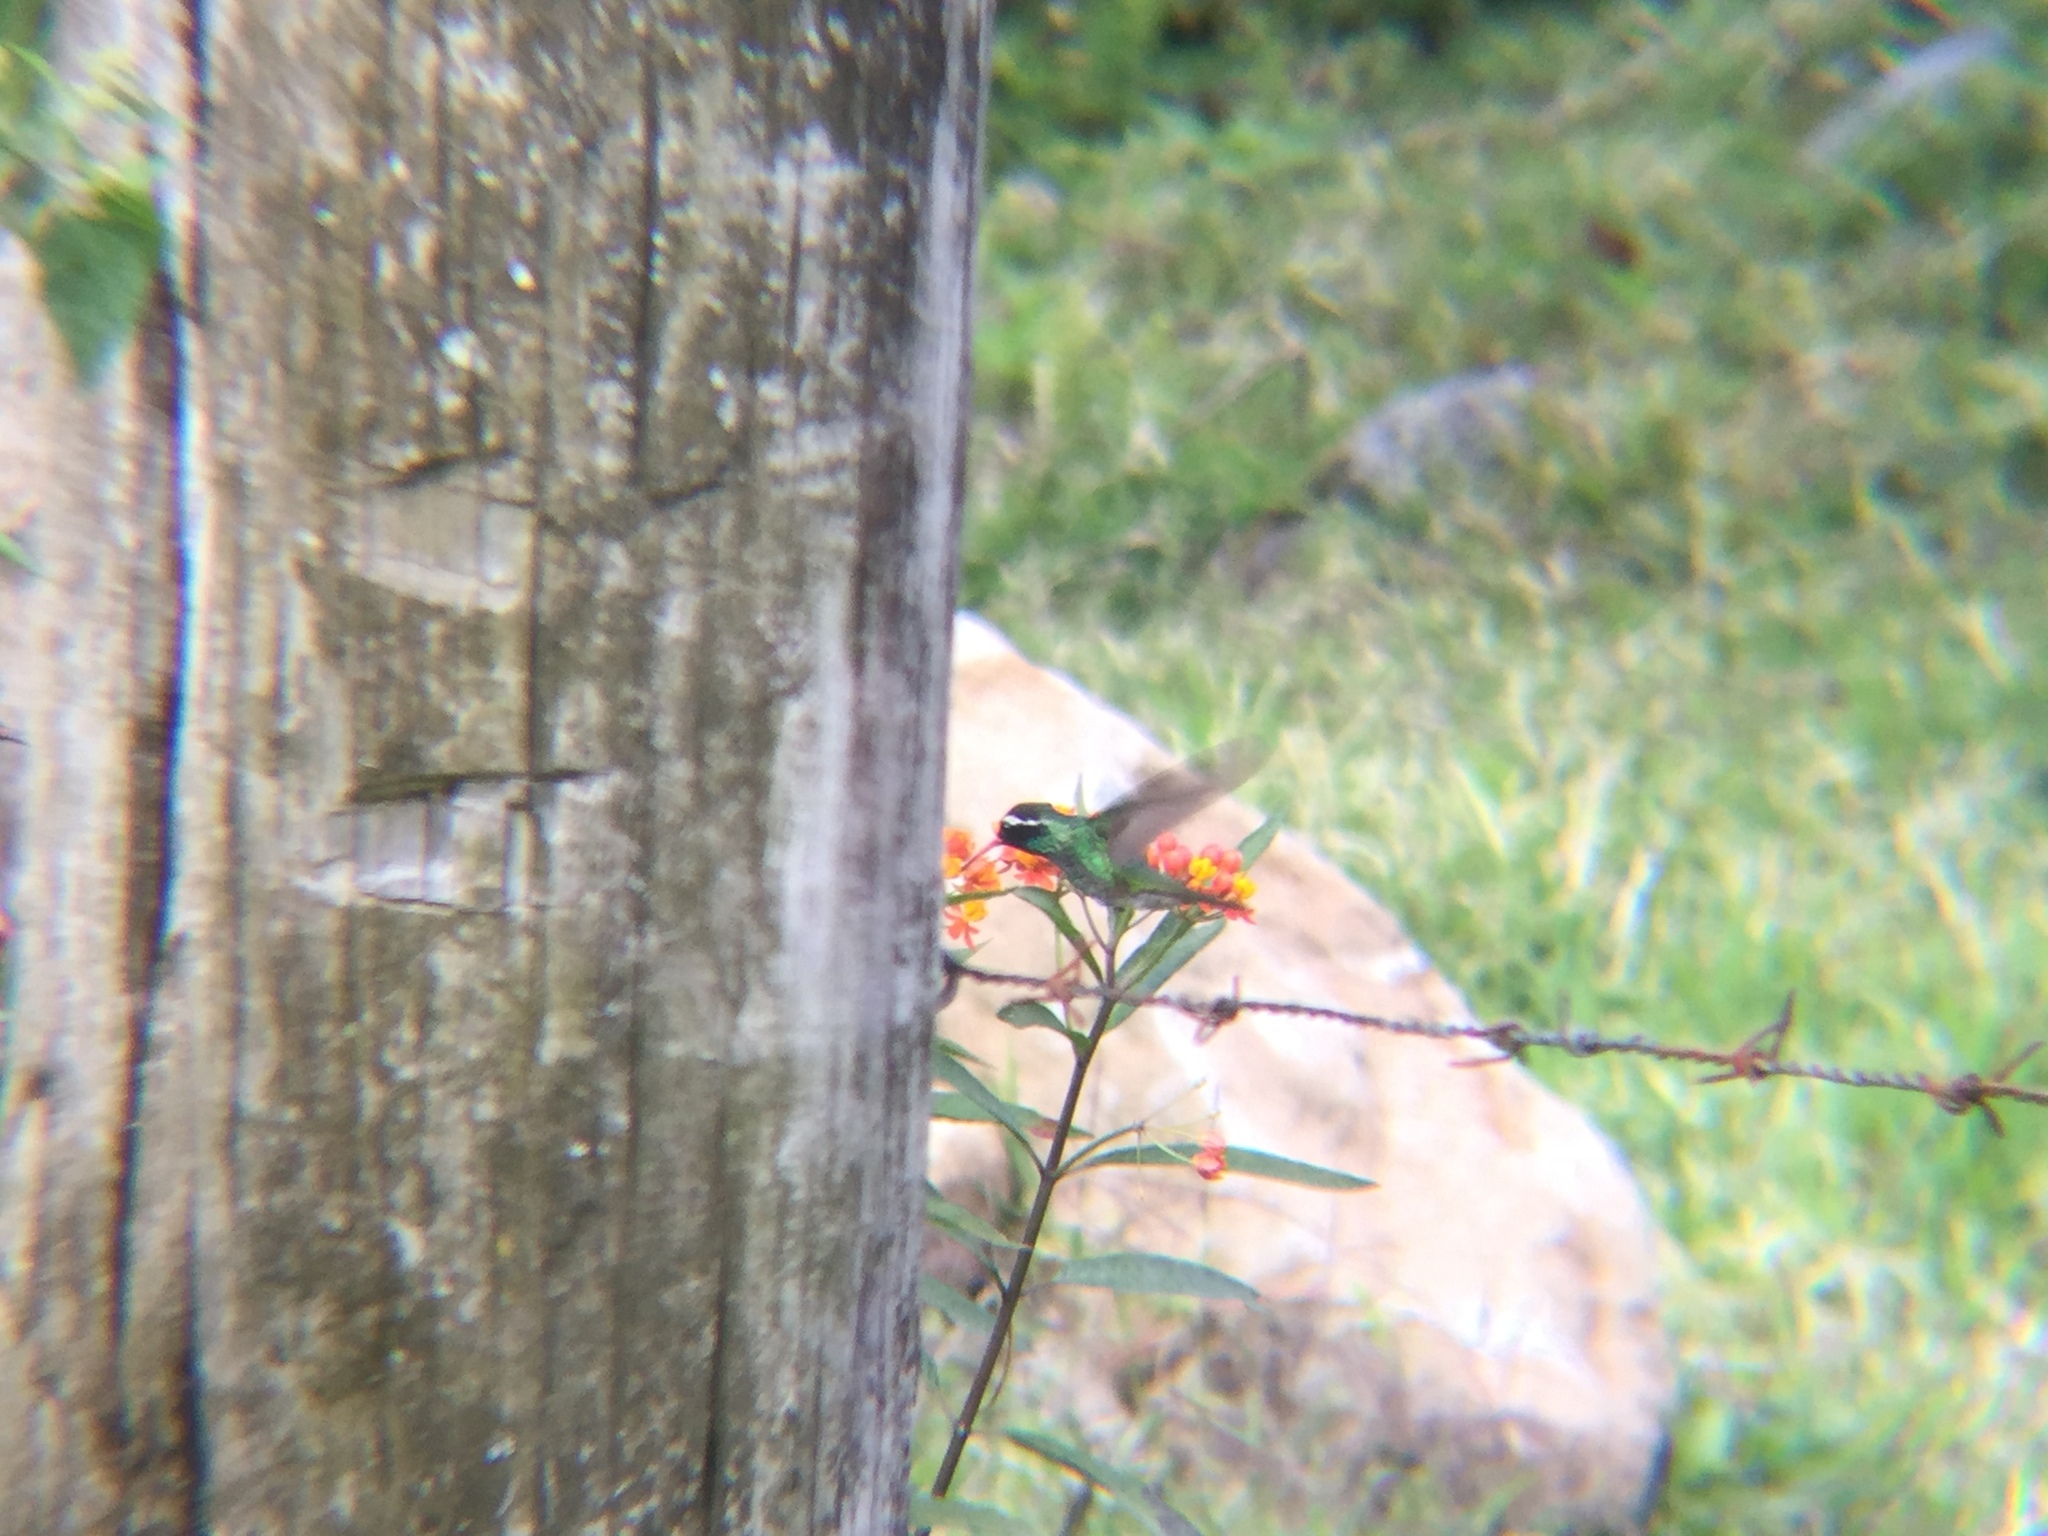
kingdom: Animalia
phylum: Chordata
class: Aves
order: Apodiformes
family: Trochilidae
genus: Basilinna
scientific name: Basilinna leucotis
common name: White-eared hummingbird
